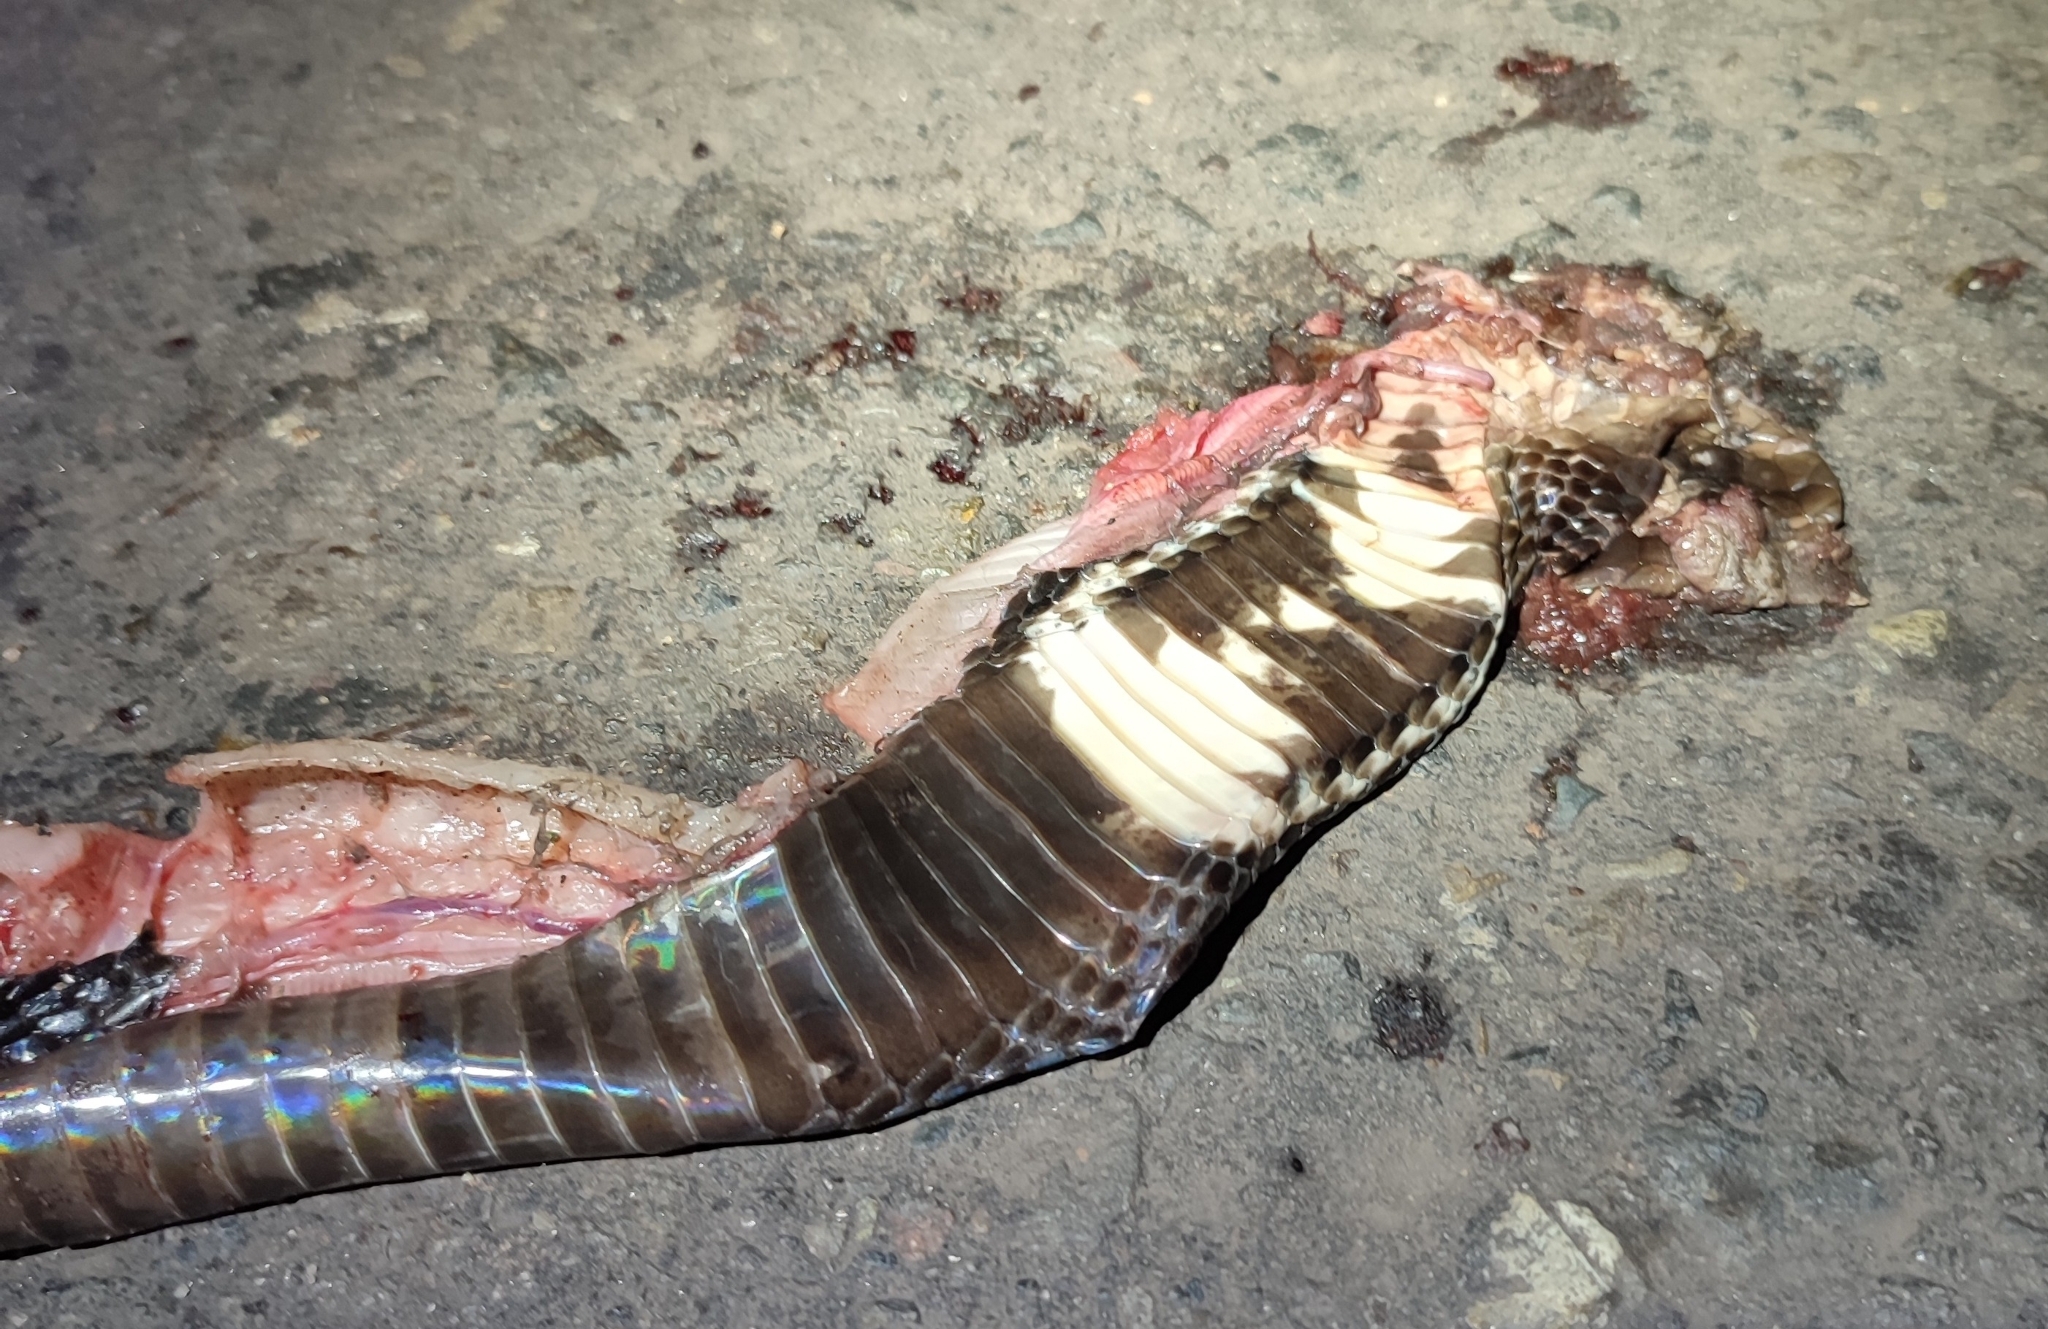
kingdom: Animalia
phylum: Chordata
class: Squamata
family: Elapidae
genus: Naja
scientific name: Naja sumatrana
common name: Equatorial spitting cobra
